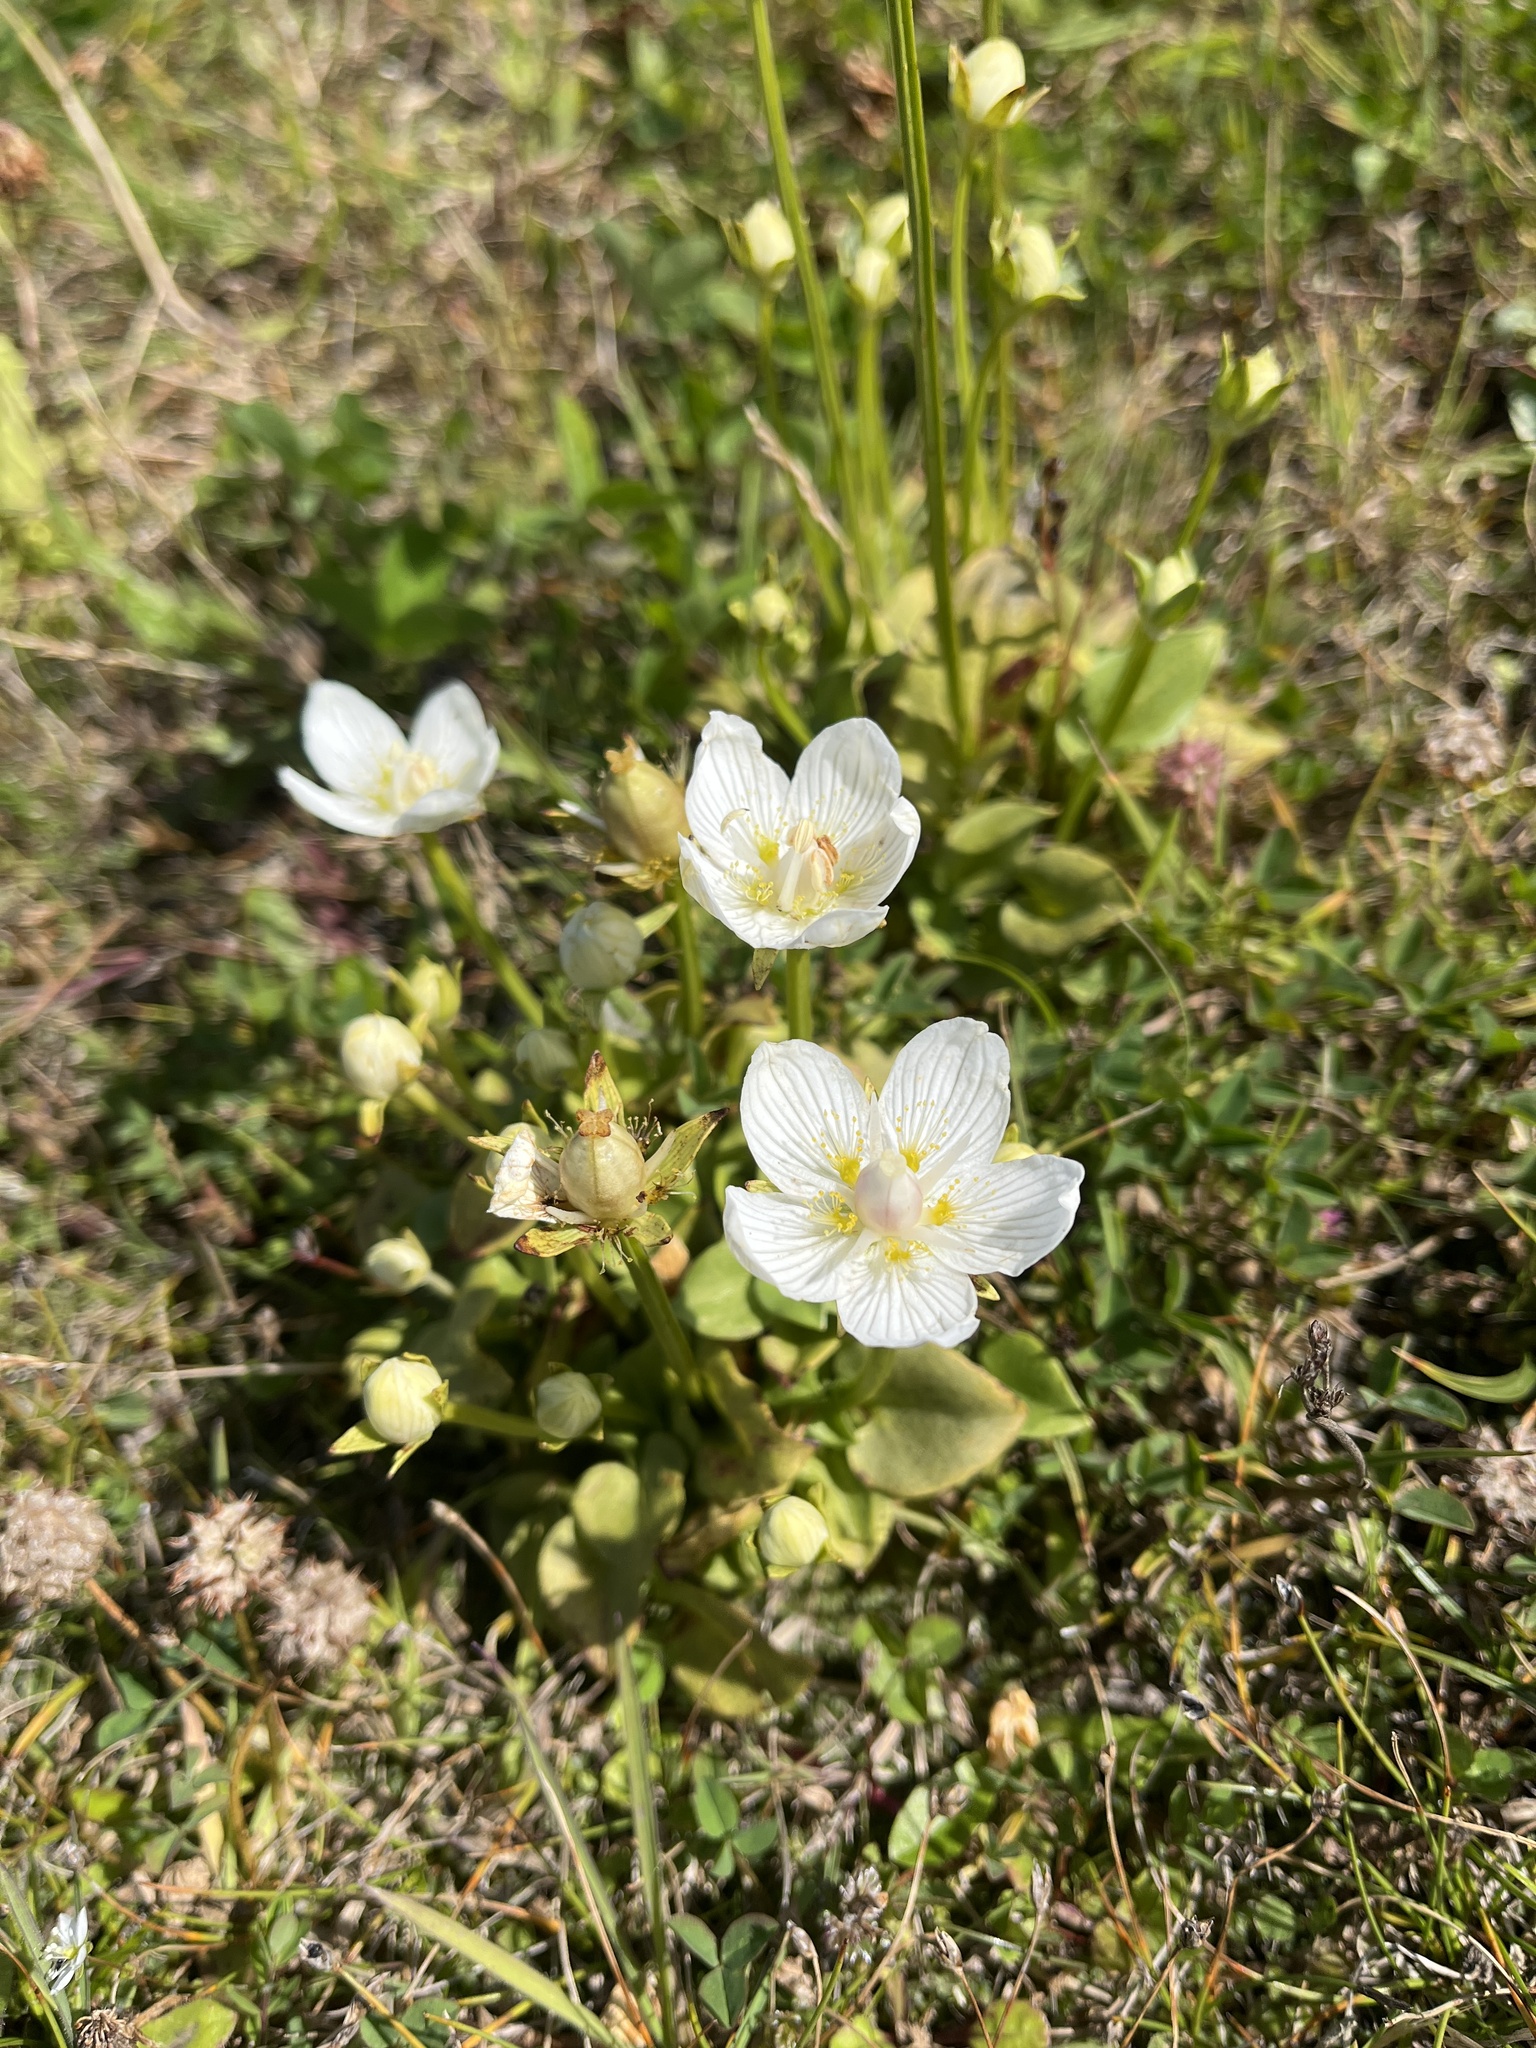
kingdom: Plantae
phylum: Tracheophyta
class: Magnoliopsida
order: Celastrales
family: Parnassiaceae
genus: Parnassia
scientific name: Parnassia palustris
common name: Grass-of-parnassus
